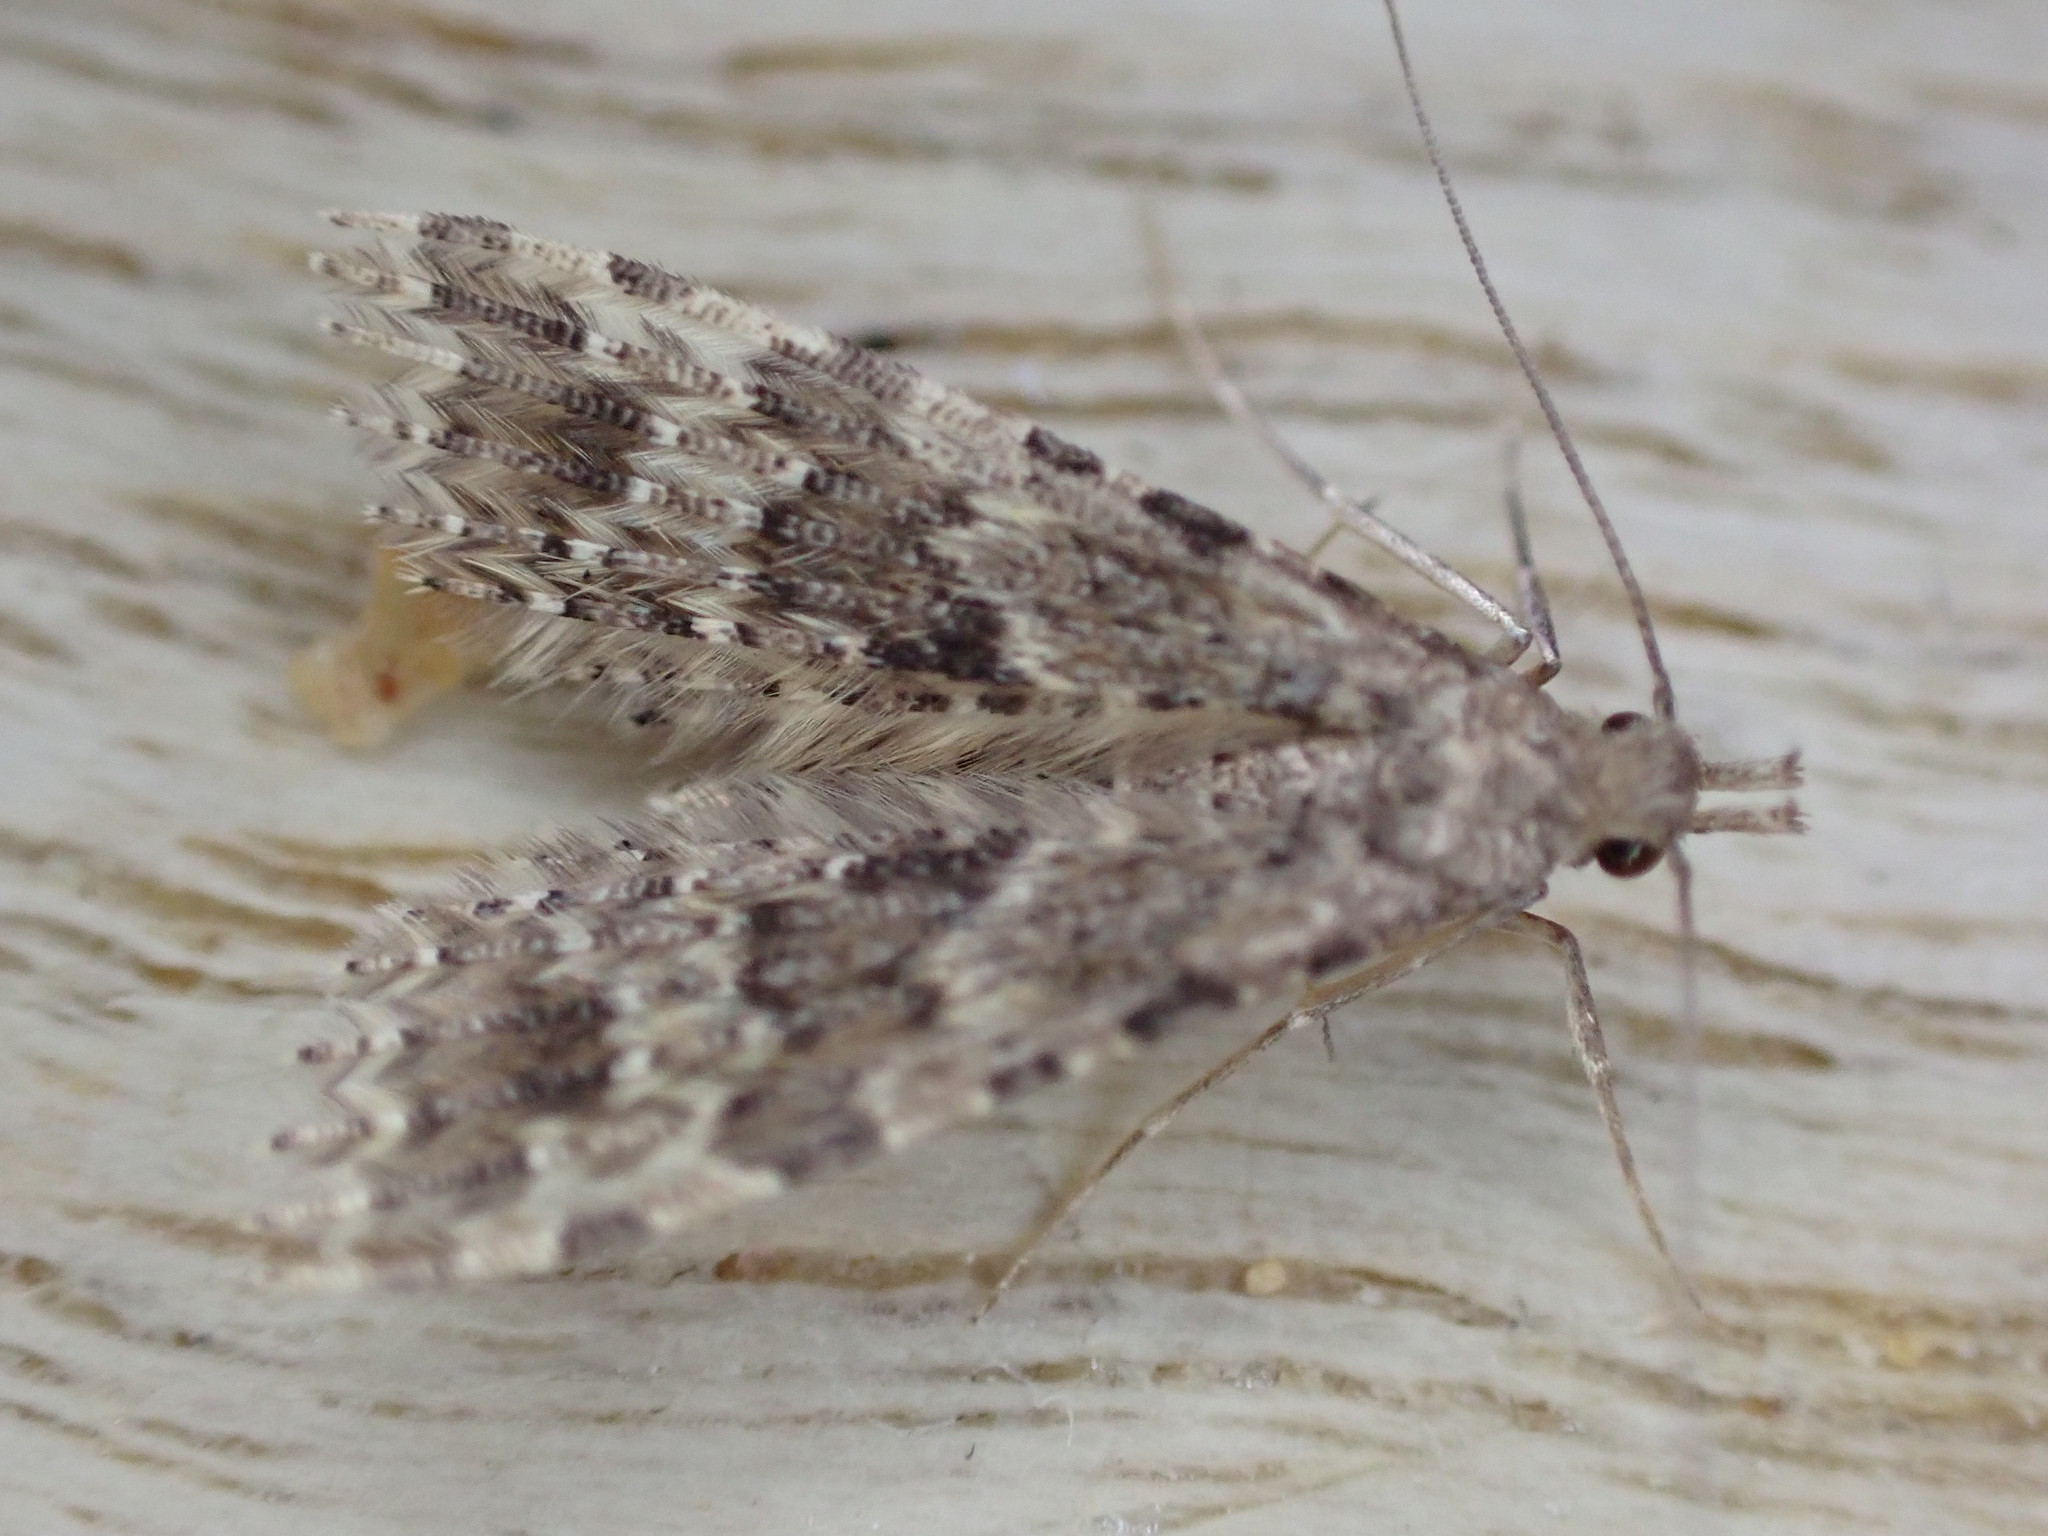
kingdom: Animalia
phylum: Arthropoda
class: Insecta
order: Lepidoptera
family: Alucitidae
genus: Alucita
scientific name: Alucita hexadactyla
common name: Twenty-plume moth
